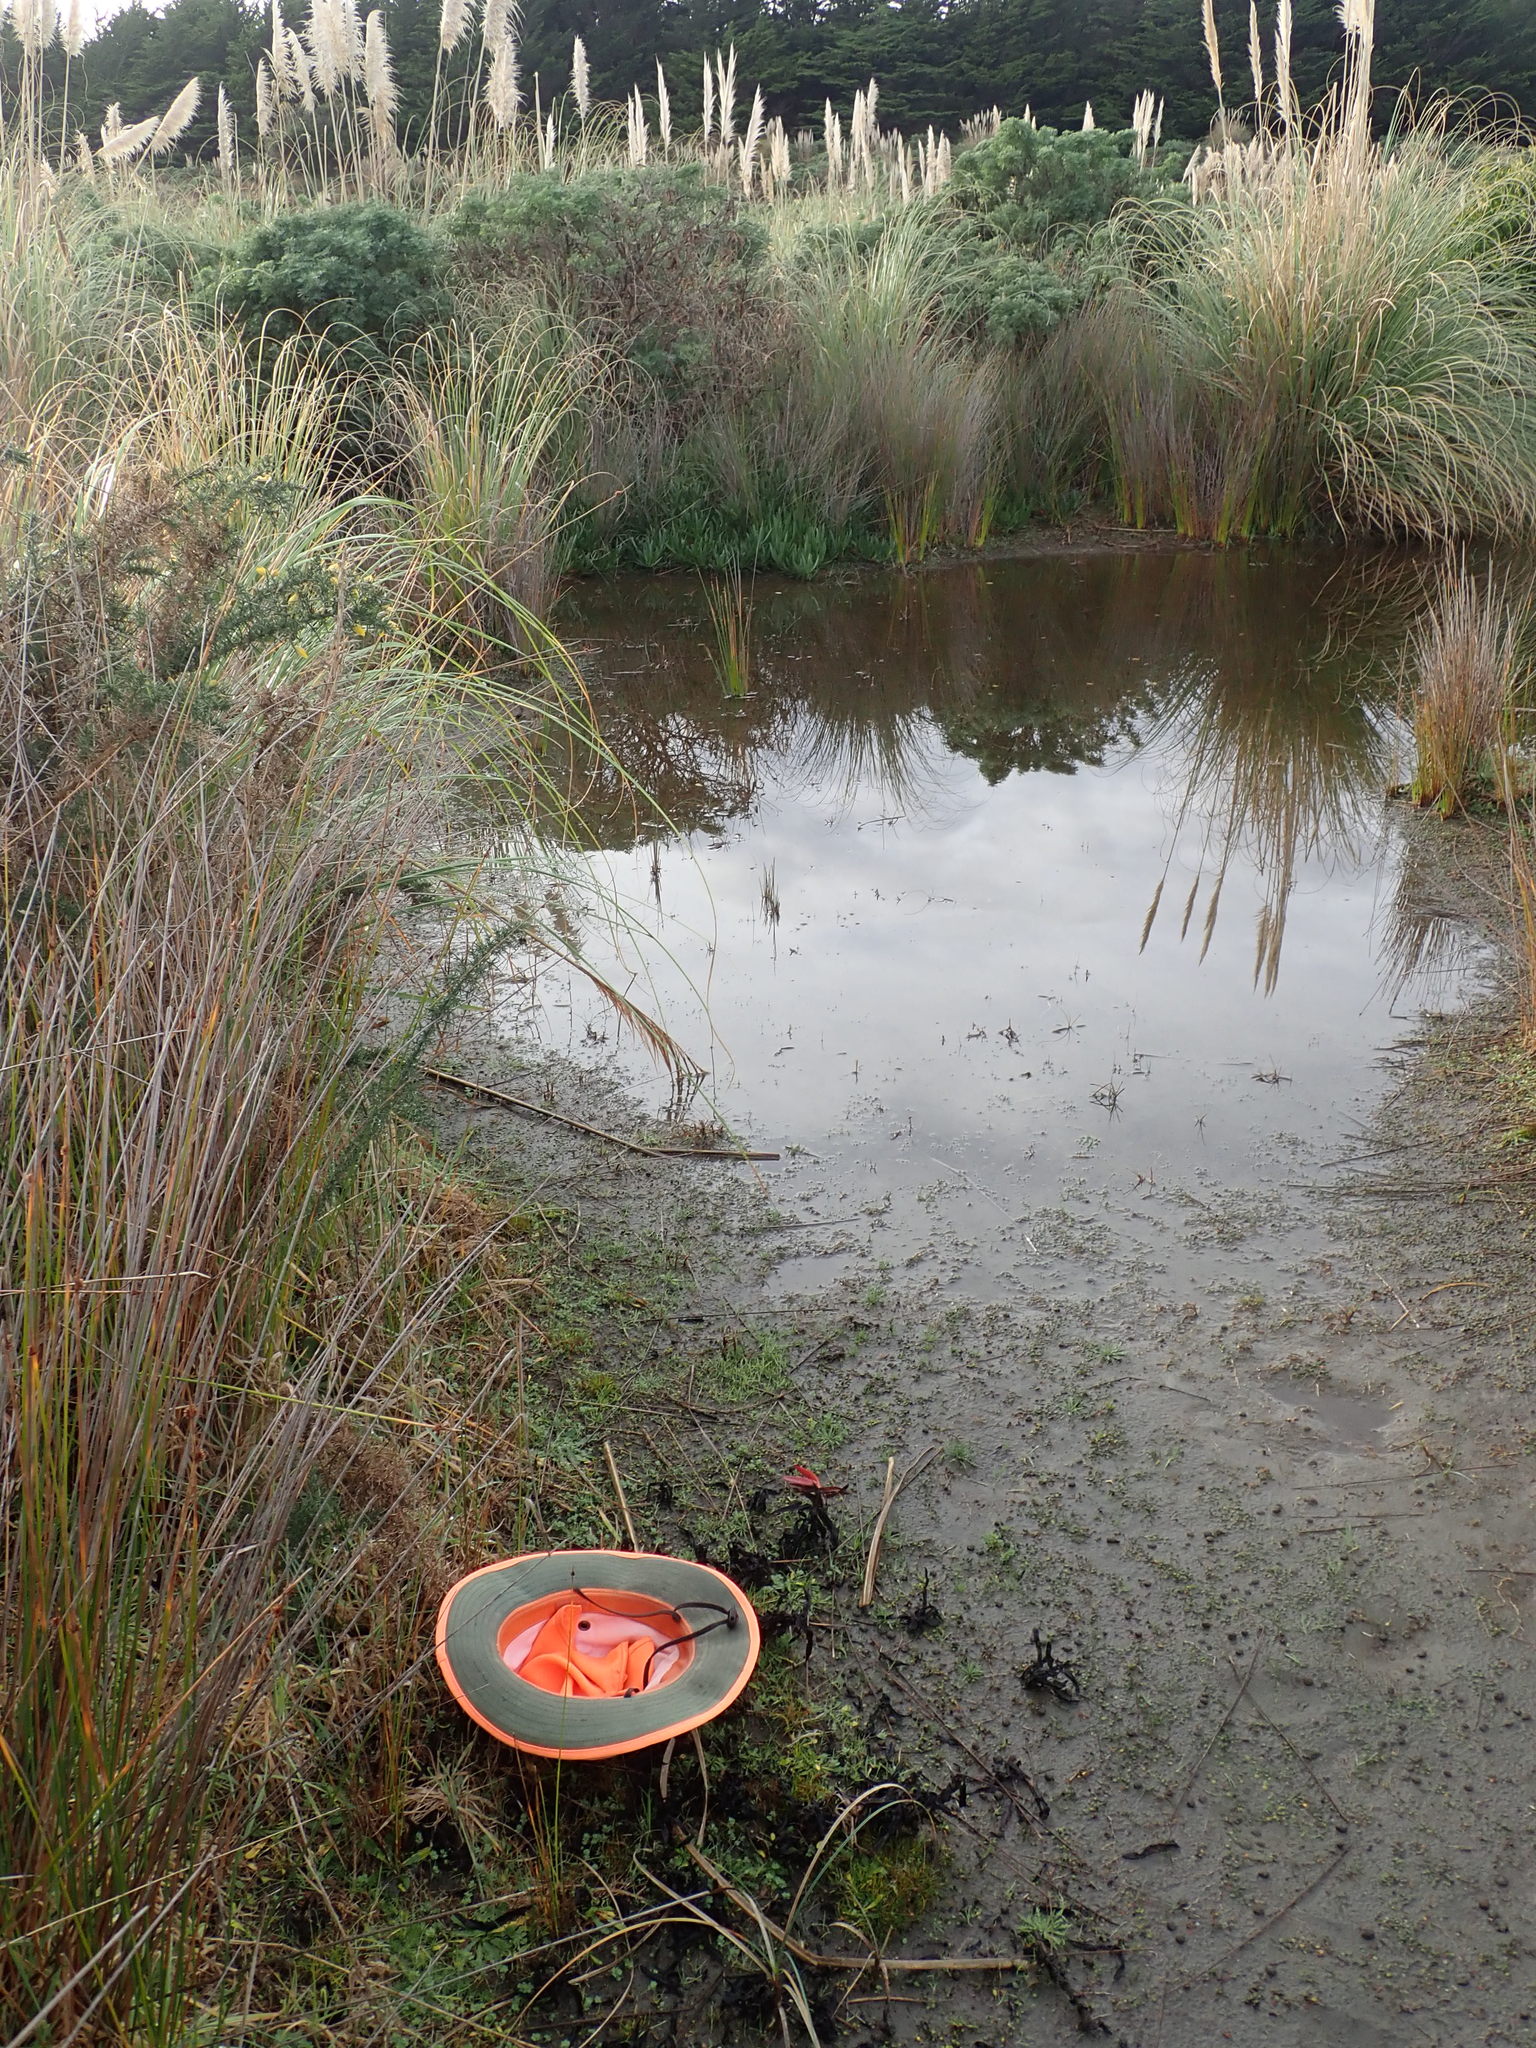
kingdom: Plantae
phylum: Tracheophyta
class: Liliopsida
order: Alismatales
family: Juncaginaceae
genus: Triglochin
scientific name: Triglochin striata
